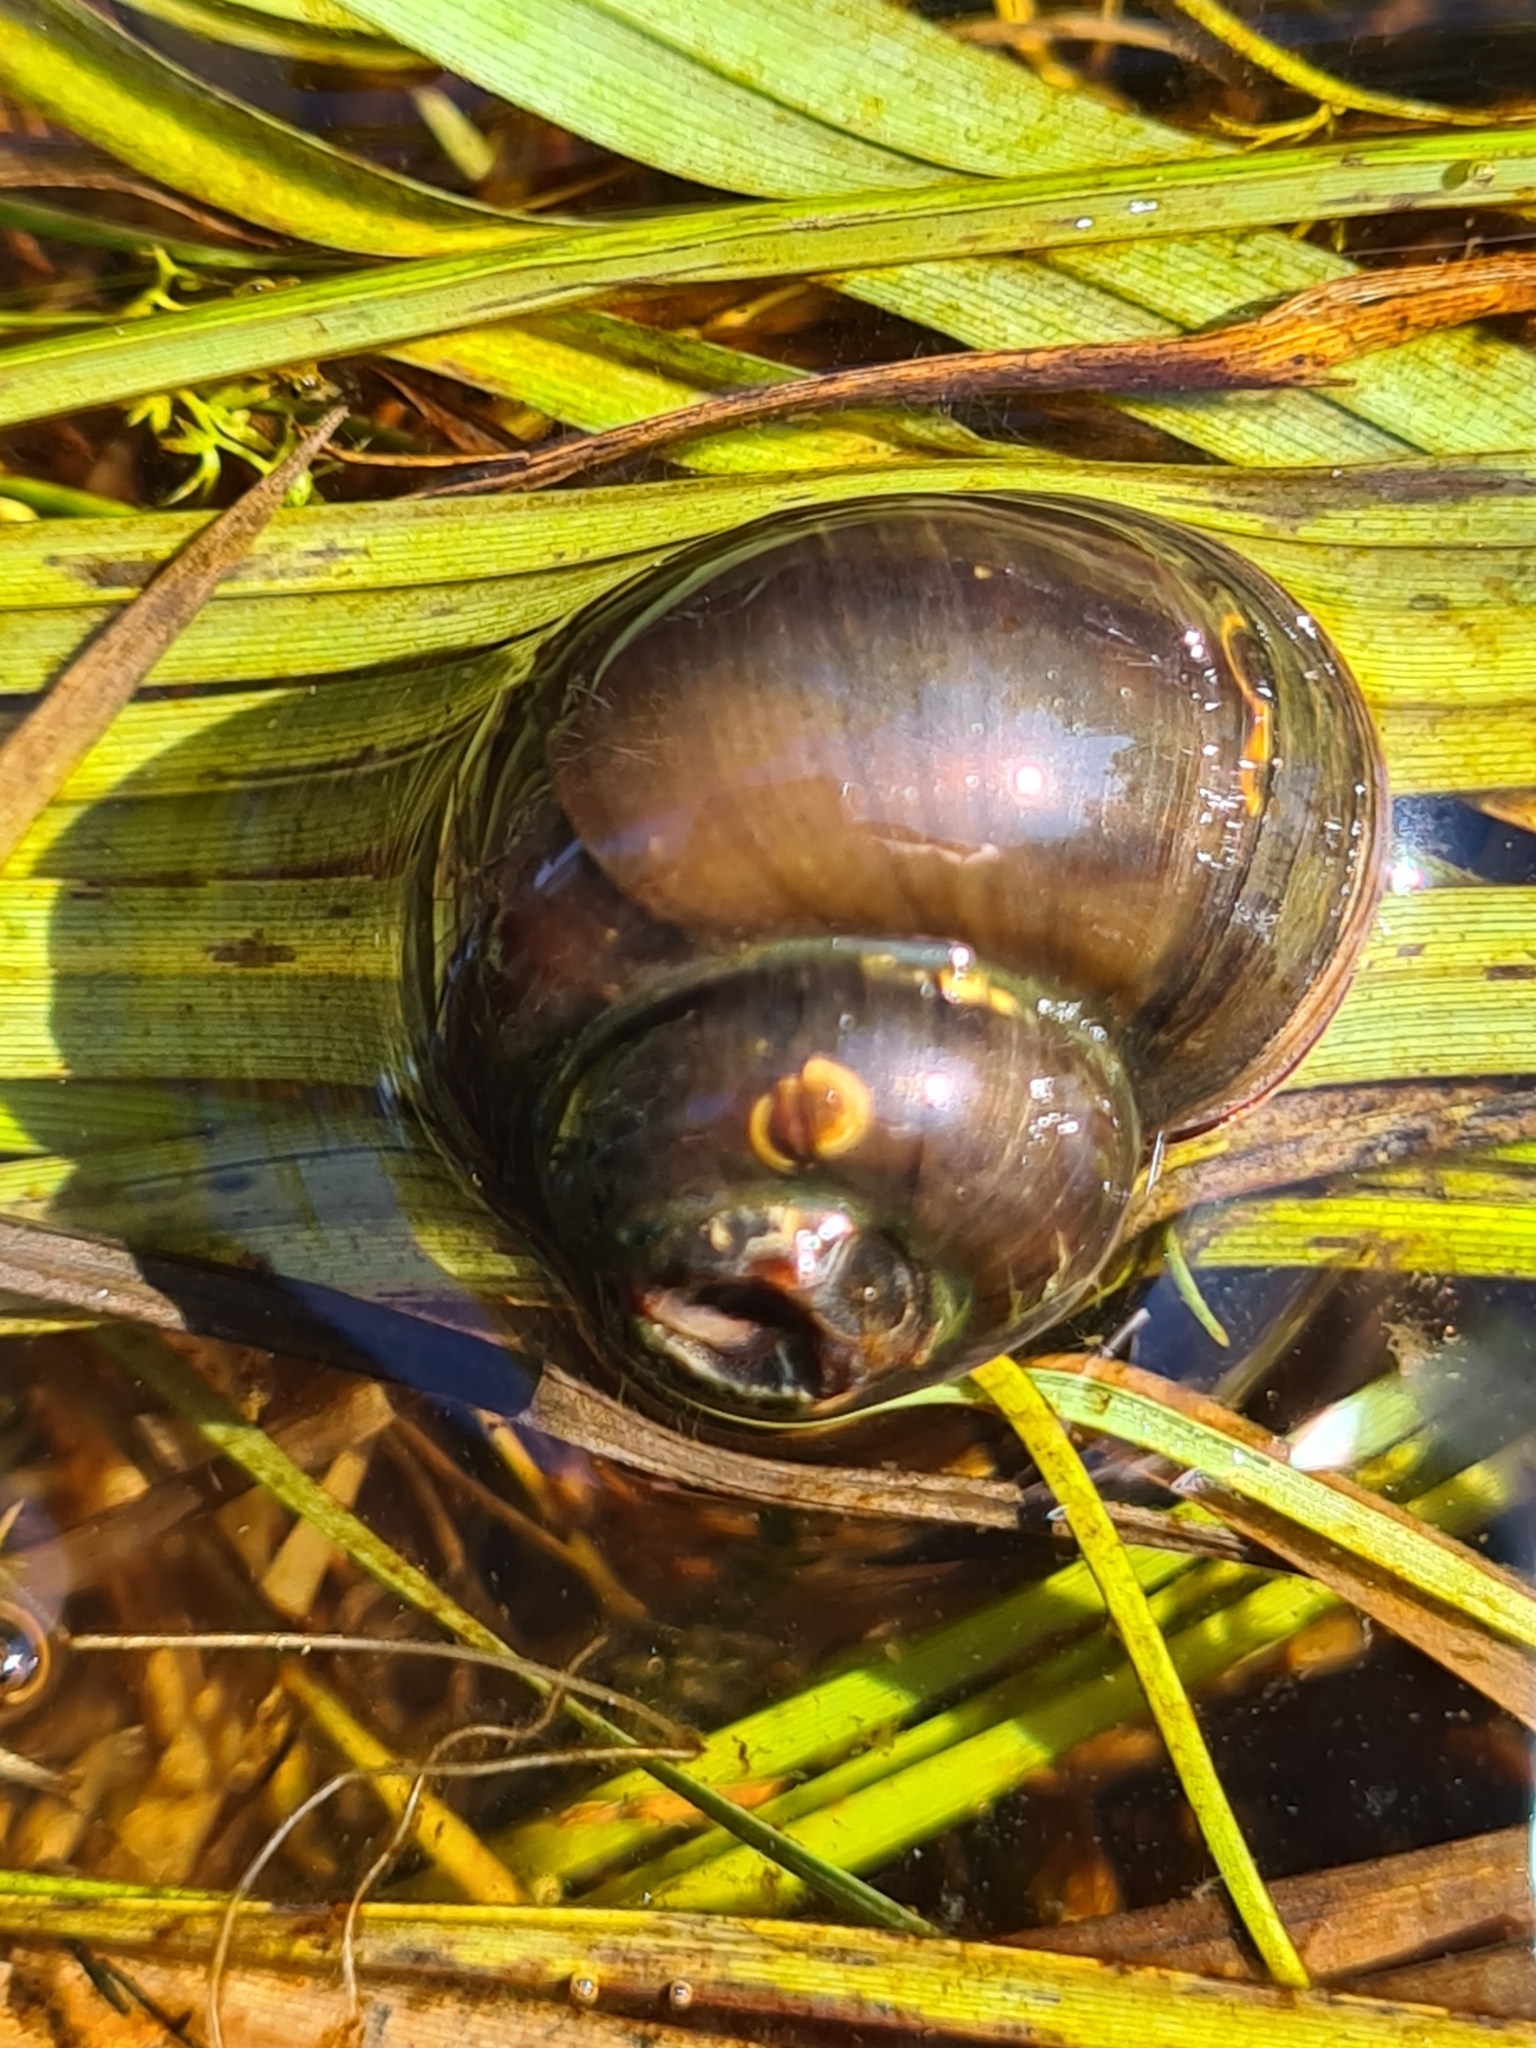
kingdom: Animalia
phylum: Mollusca
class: Gastropoda
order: Architaenioglossa
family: Viviparidae
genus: Viviparus
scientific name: Viviparus contectus
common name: Lister's river snail
